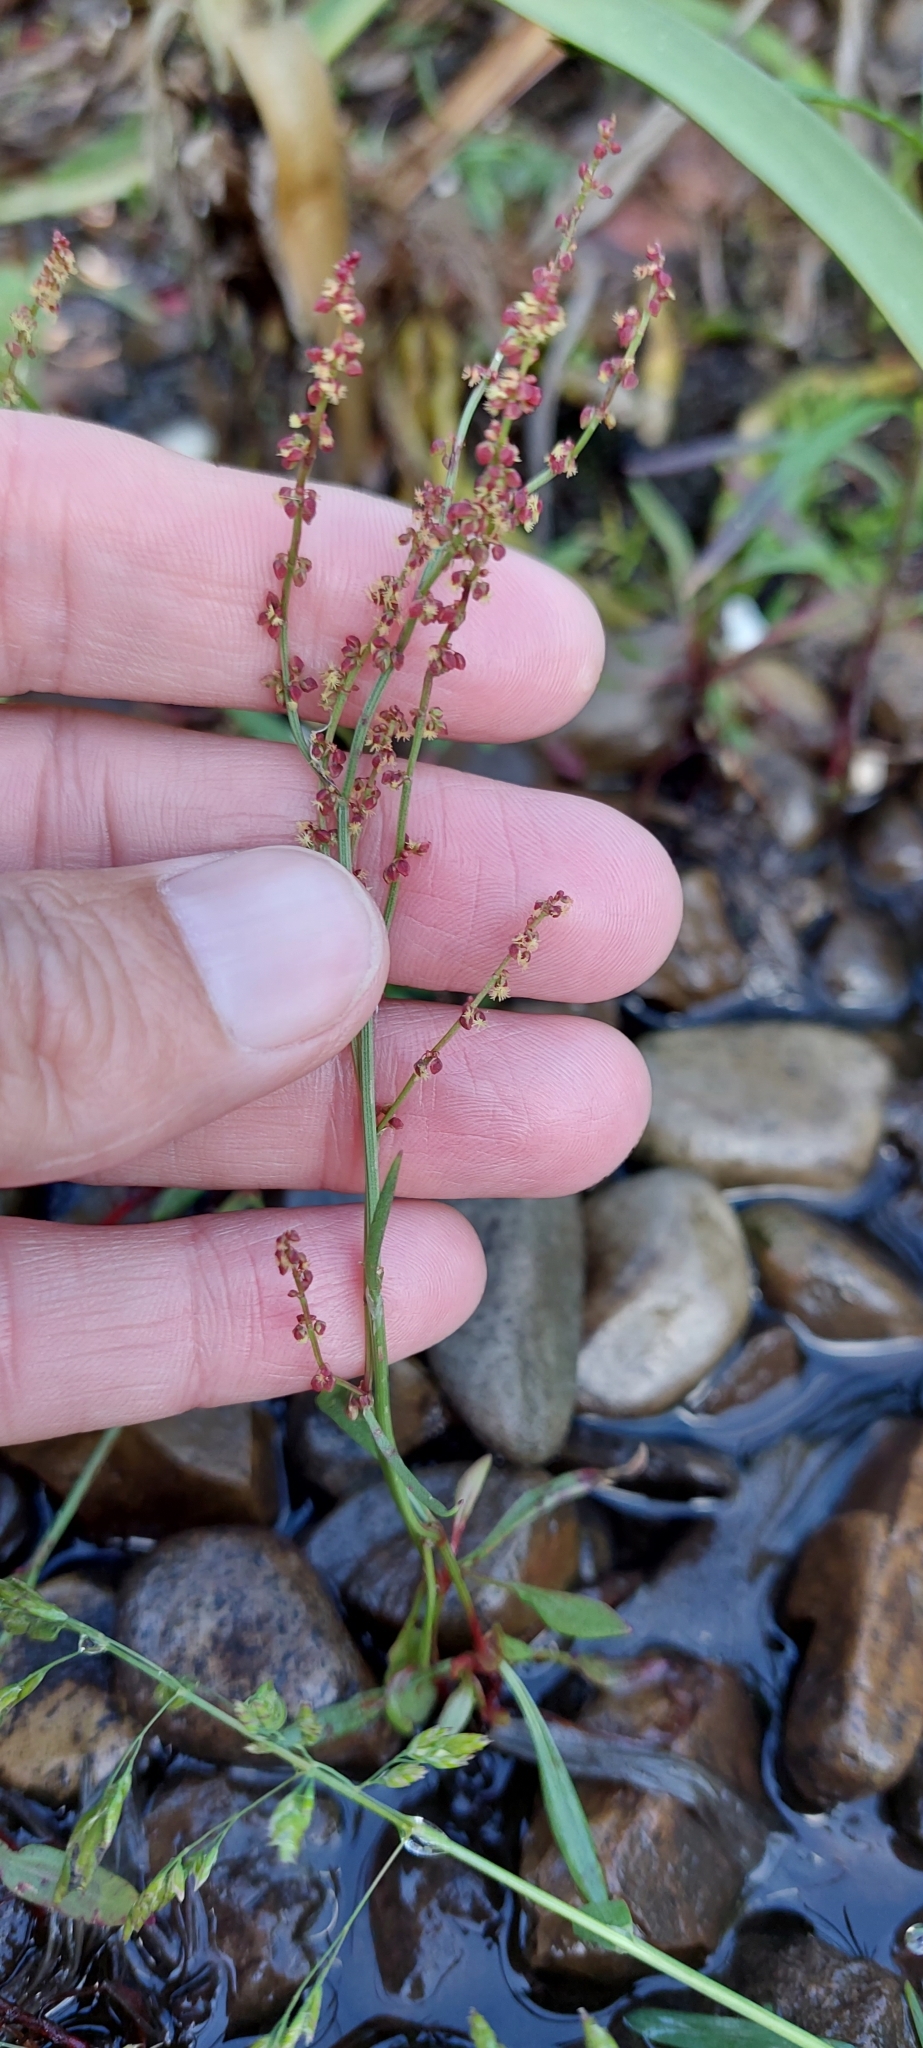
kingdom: Plantae
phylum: Tracheophyta
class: Magnoliopsida
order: Caryophyllales
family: Polygonaceae
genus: Rumex
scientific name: Rumex acetosella
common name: Common sheep sorrel
